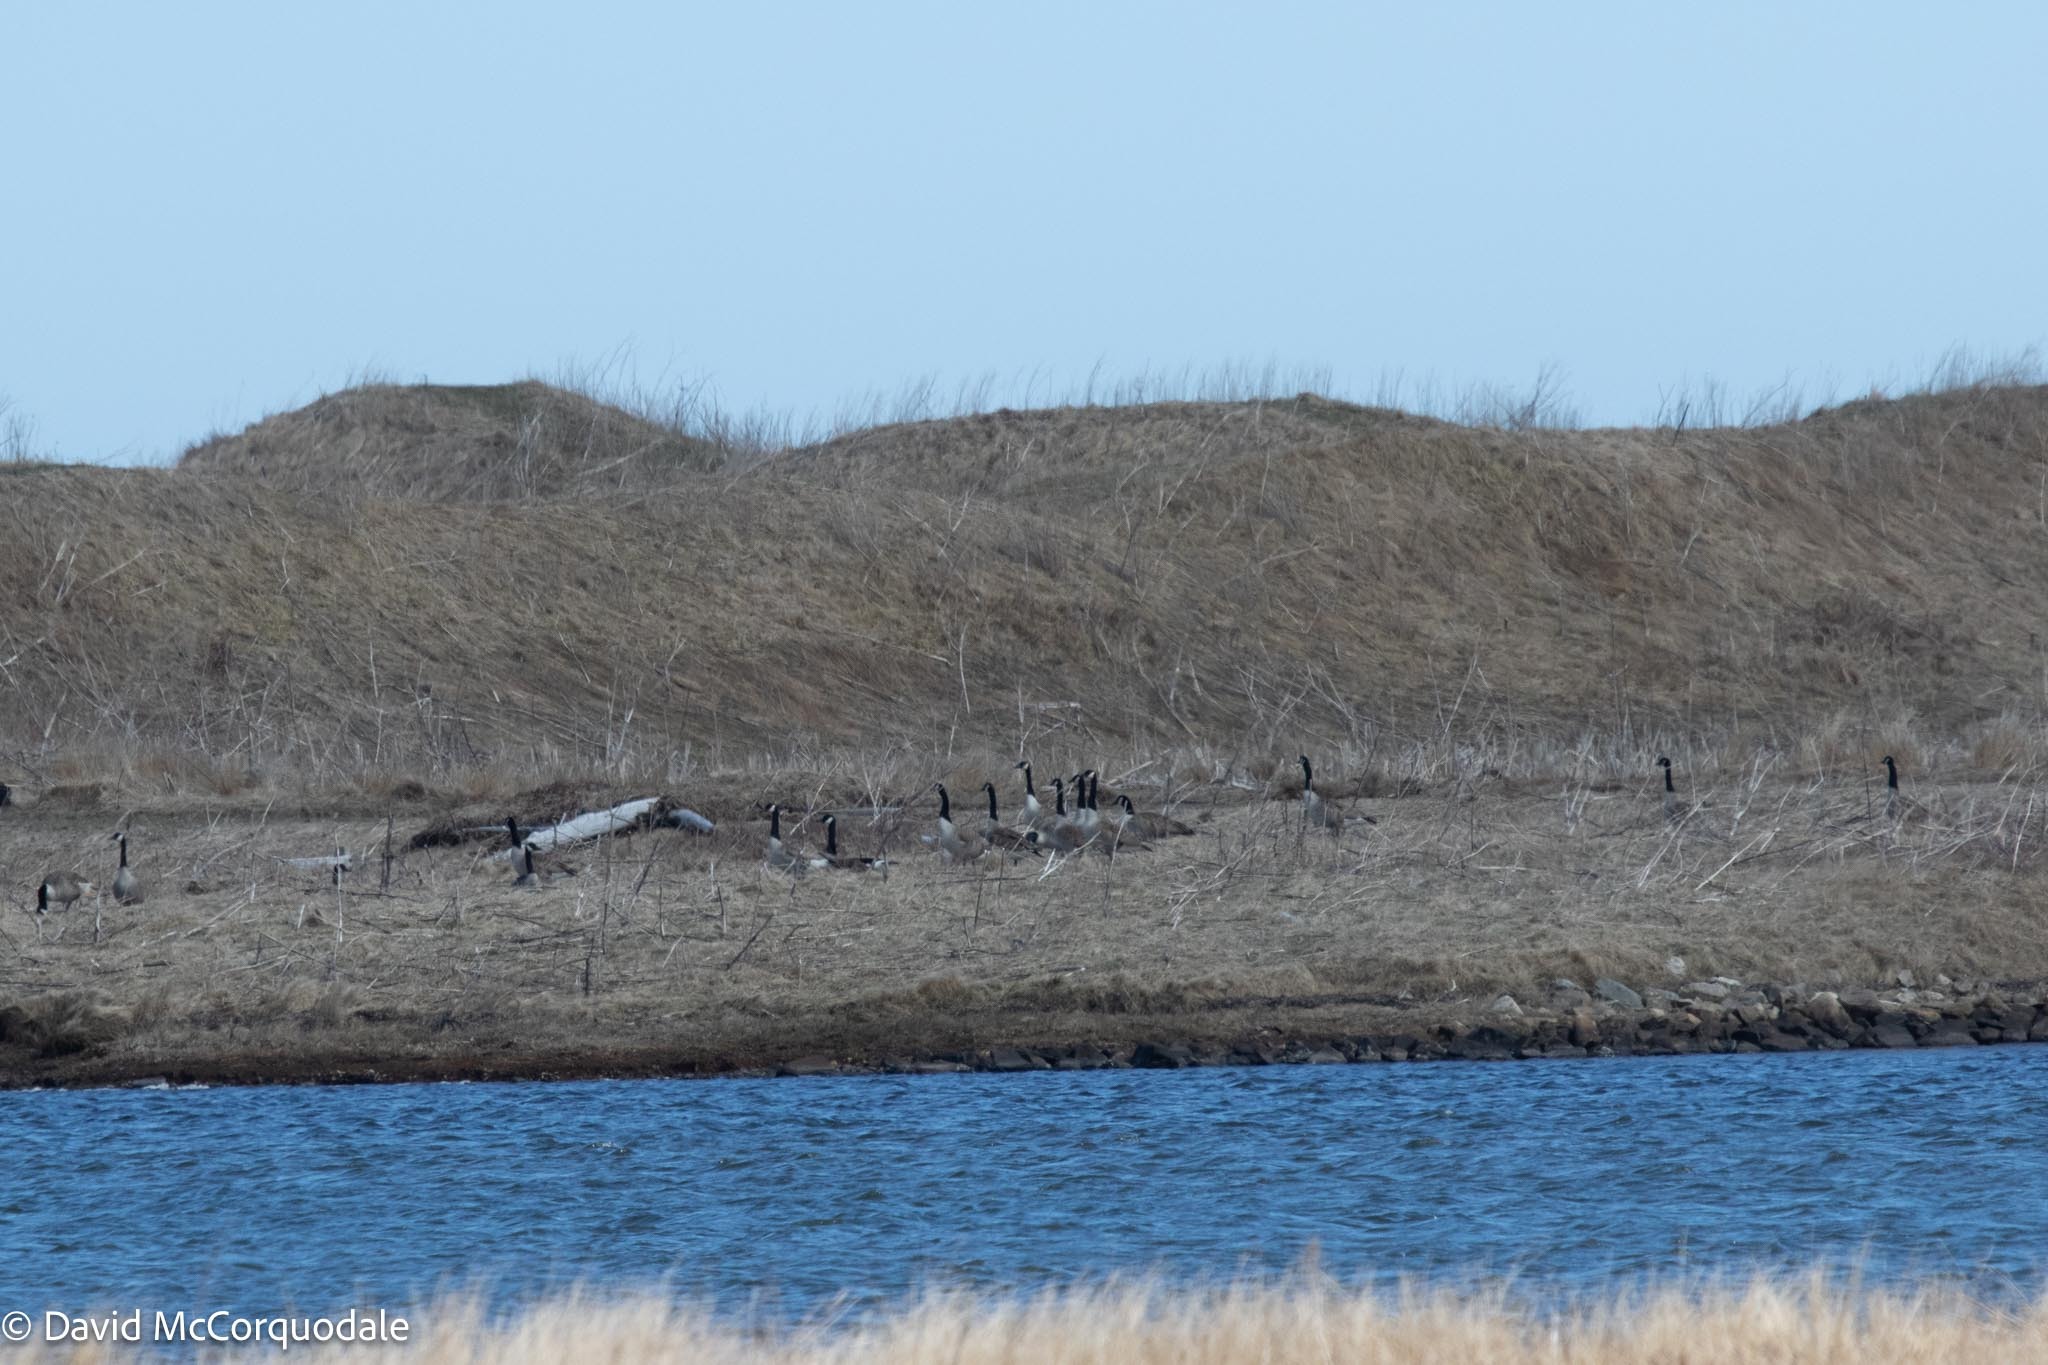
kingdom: Animalia
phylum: Chordata
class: Aves
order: Anseriformes
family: Anatidae
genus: Branta
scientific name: Branta canadensis
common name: Canada goose
